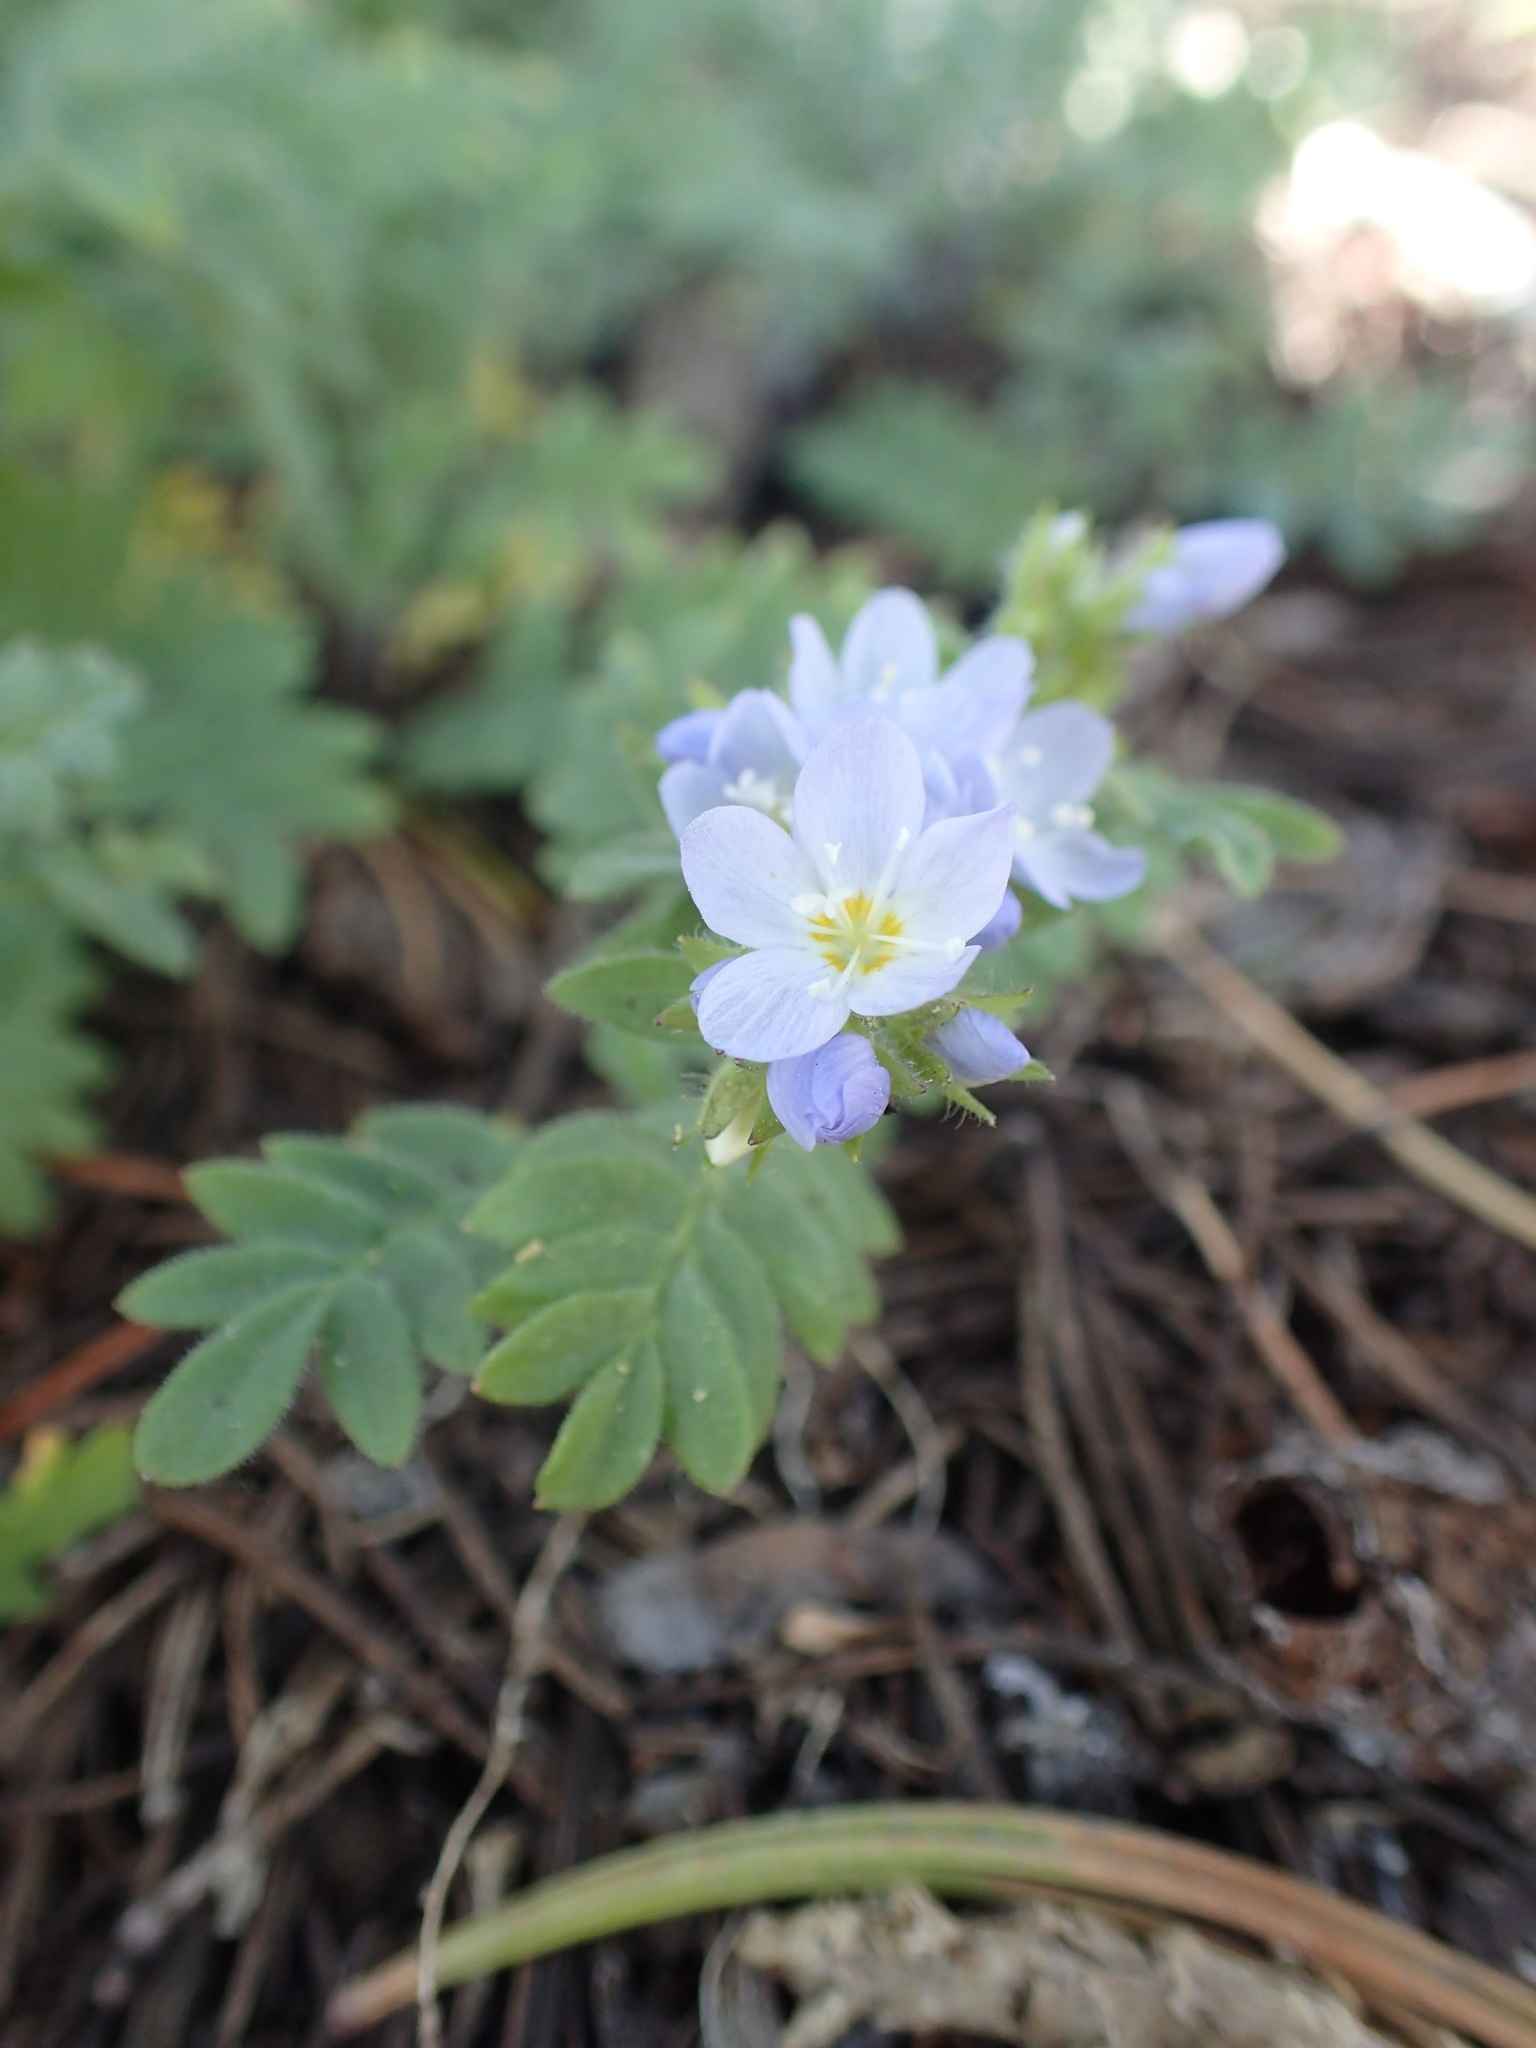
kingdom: Plantae
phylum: Tracheophyta
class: Magnoliopsida
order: Ericales
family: Polemoniaceae
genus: Polemonium
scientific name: Polemonium californicum
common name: California jacob's ladder
